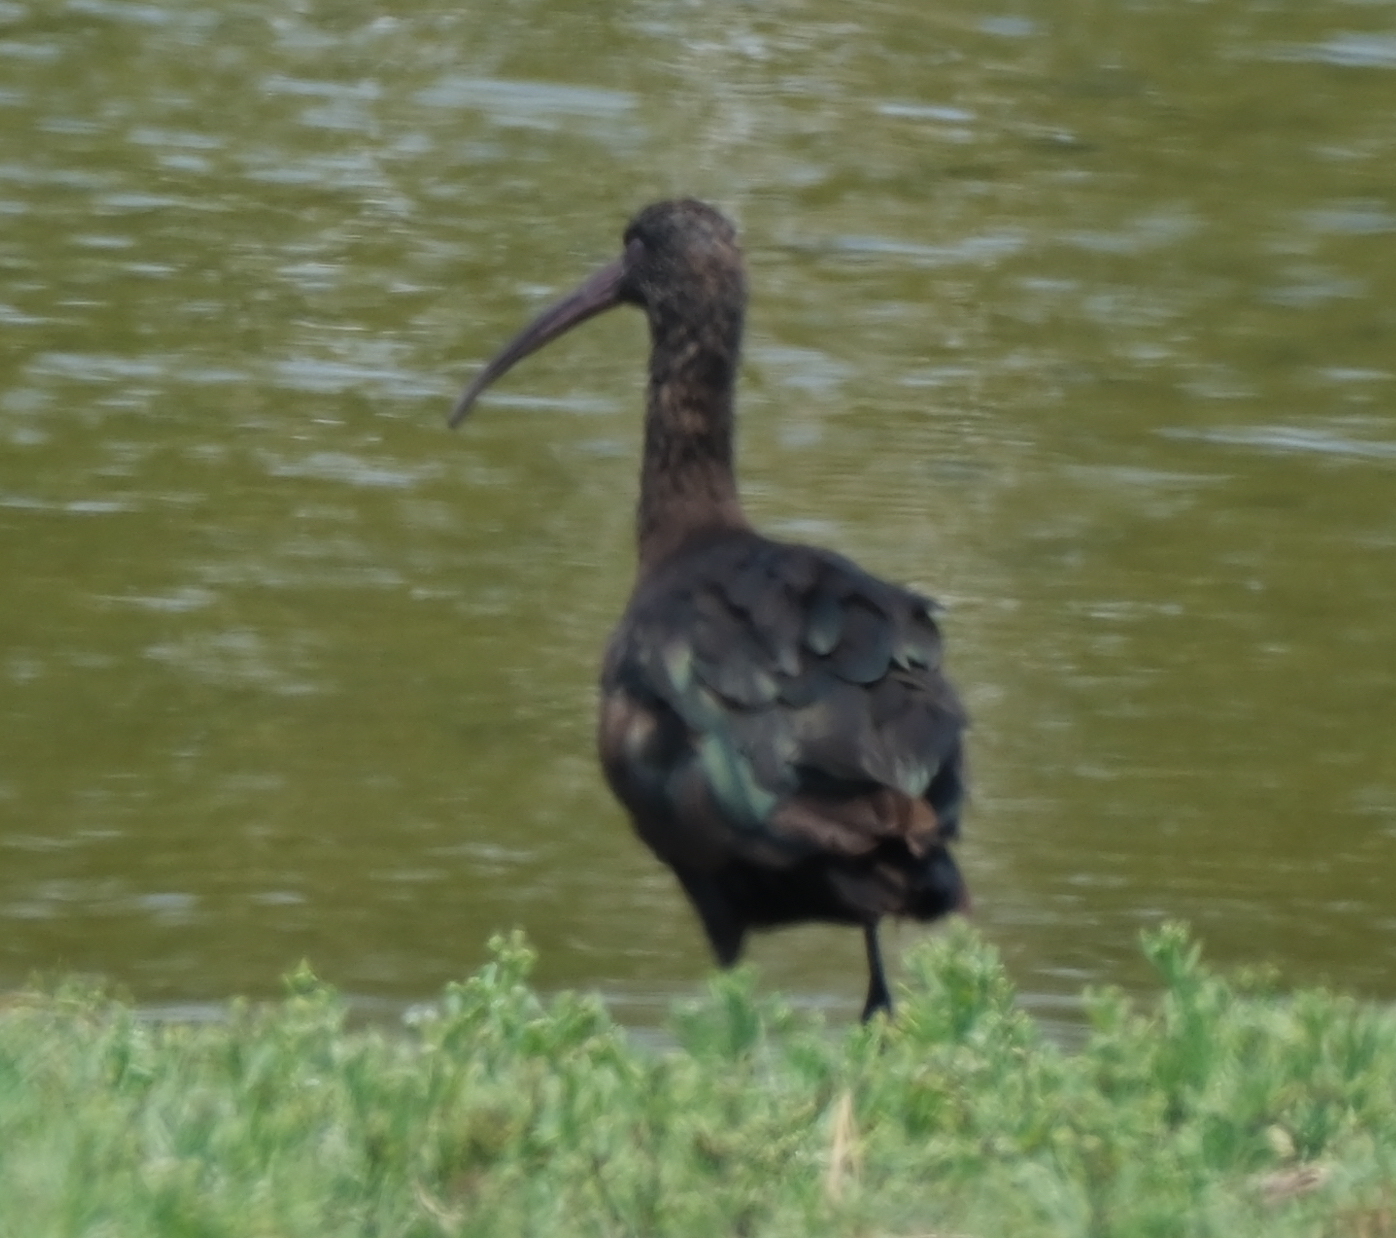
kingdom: Animalia
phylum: Chordata
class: Aves
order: Pelecaniformes
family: Threskiornithidae
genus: Plegadis
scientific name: Plegadis ridgwayi
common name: Puna ibis
